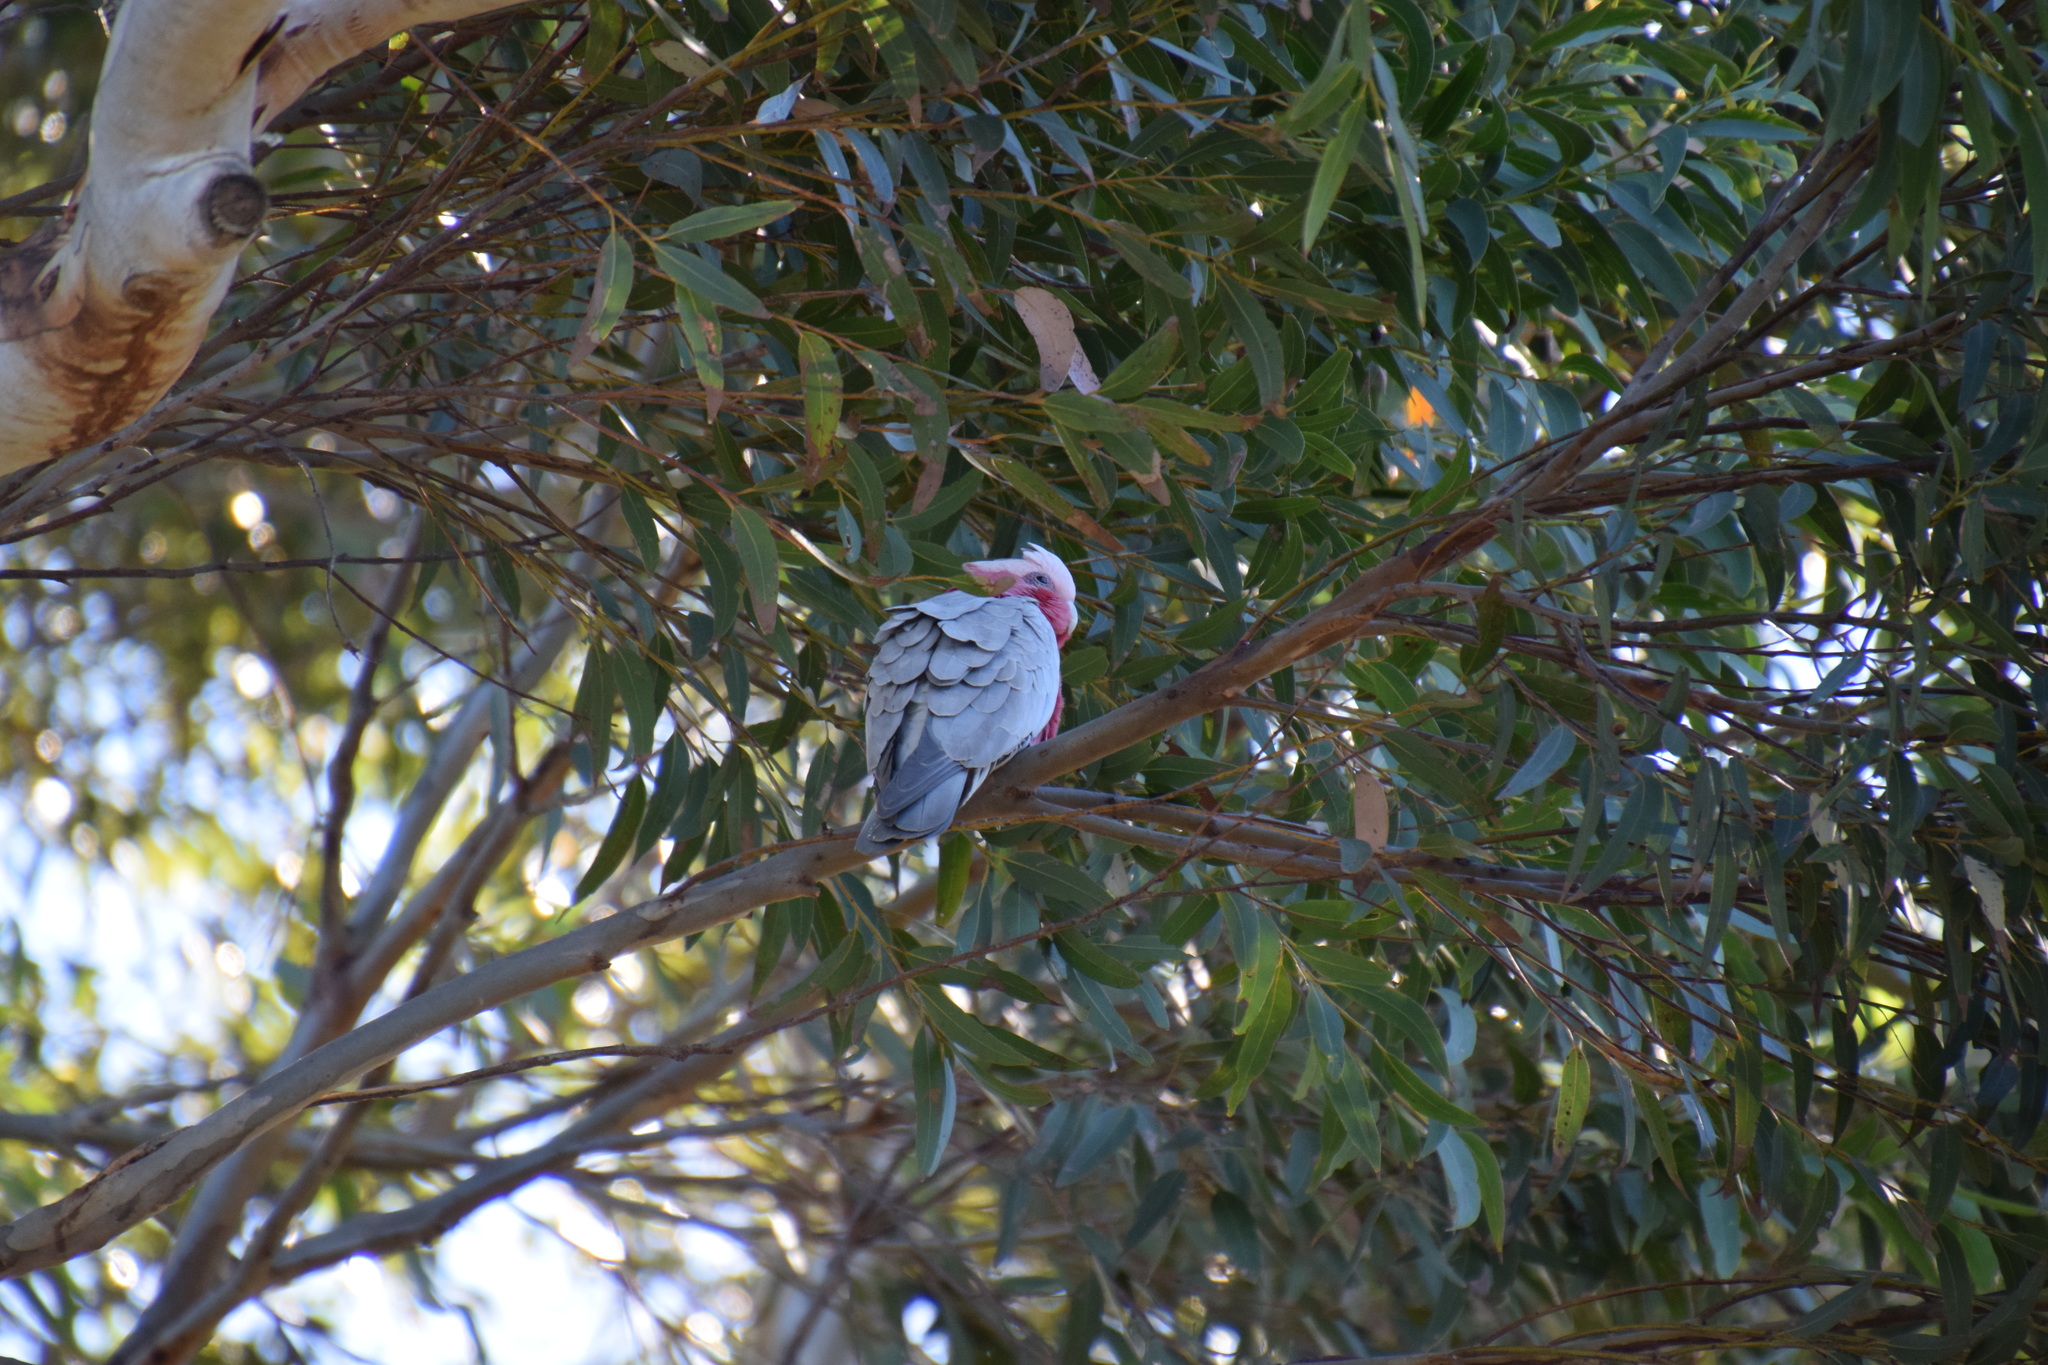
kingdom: Animalia
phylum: Chordata
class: Aves
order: Psittaciformes
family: Psittacidae
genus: Eolophus
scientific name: Eolophus roseicapilla
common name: Galah
